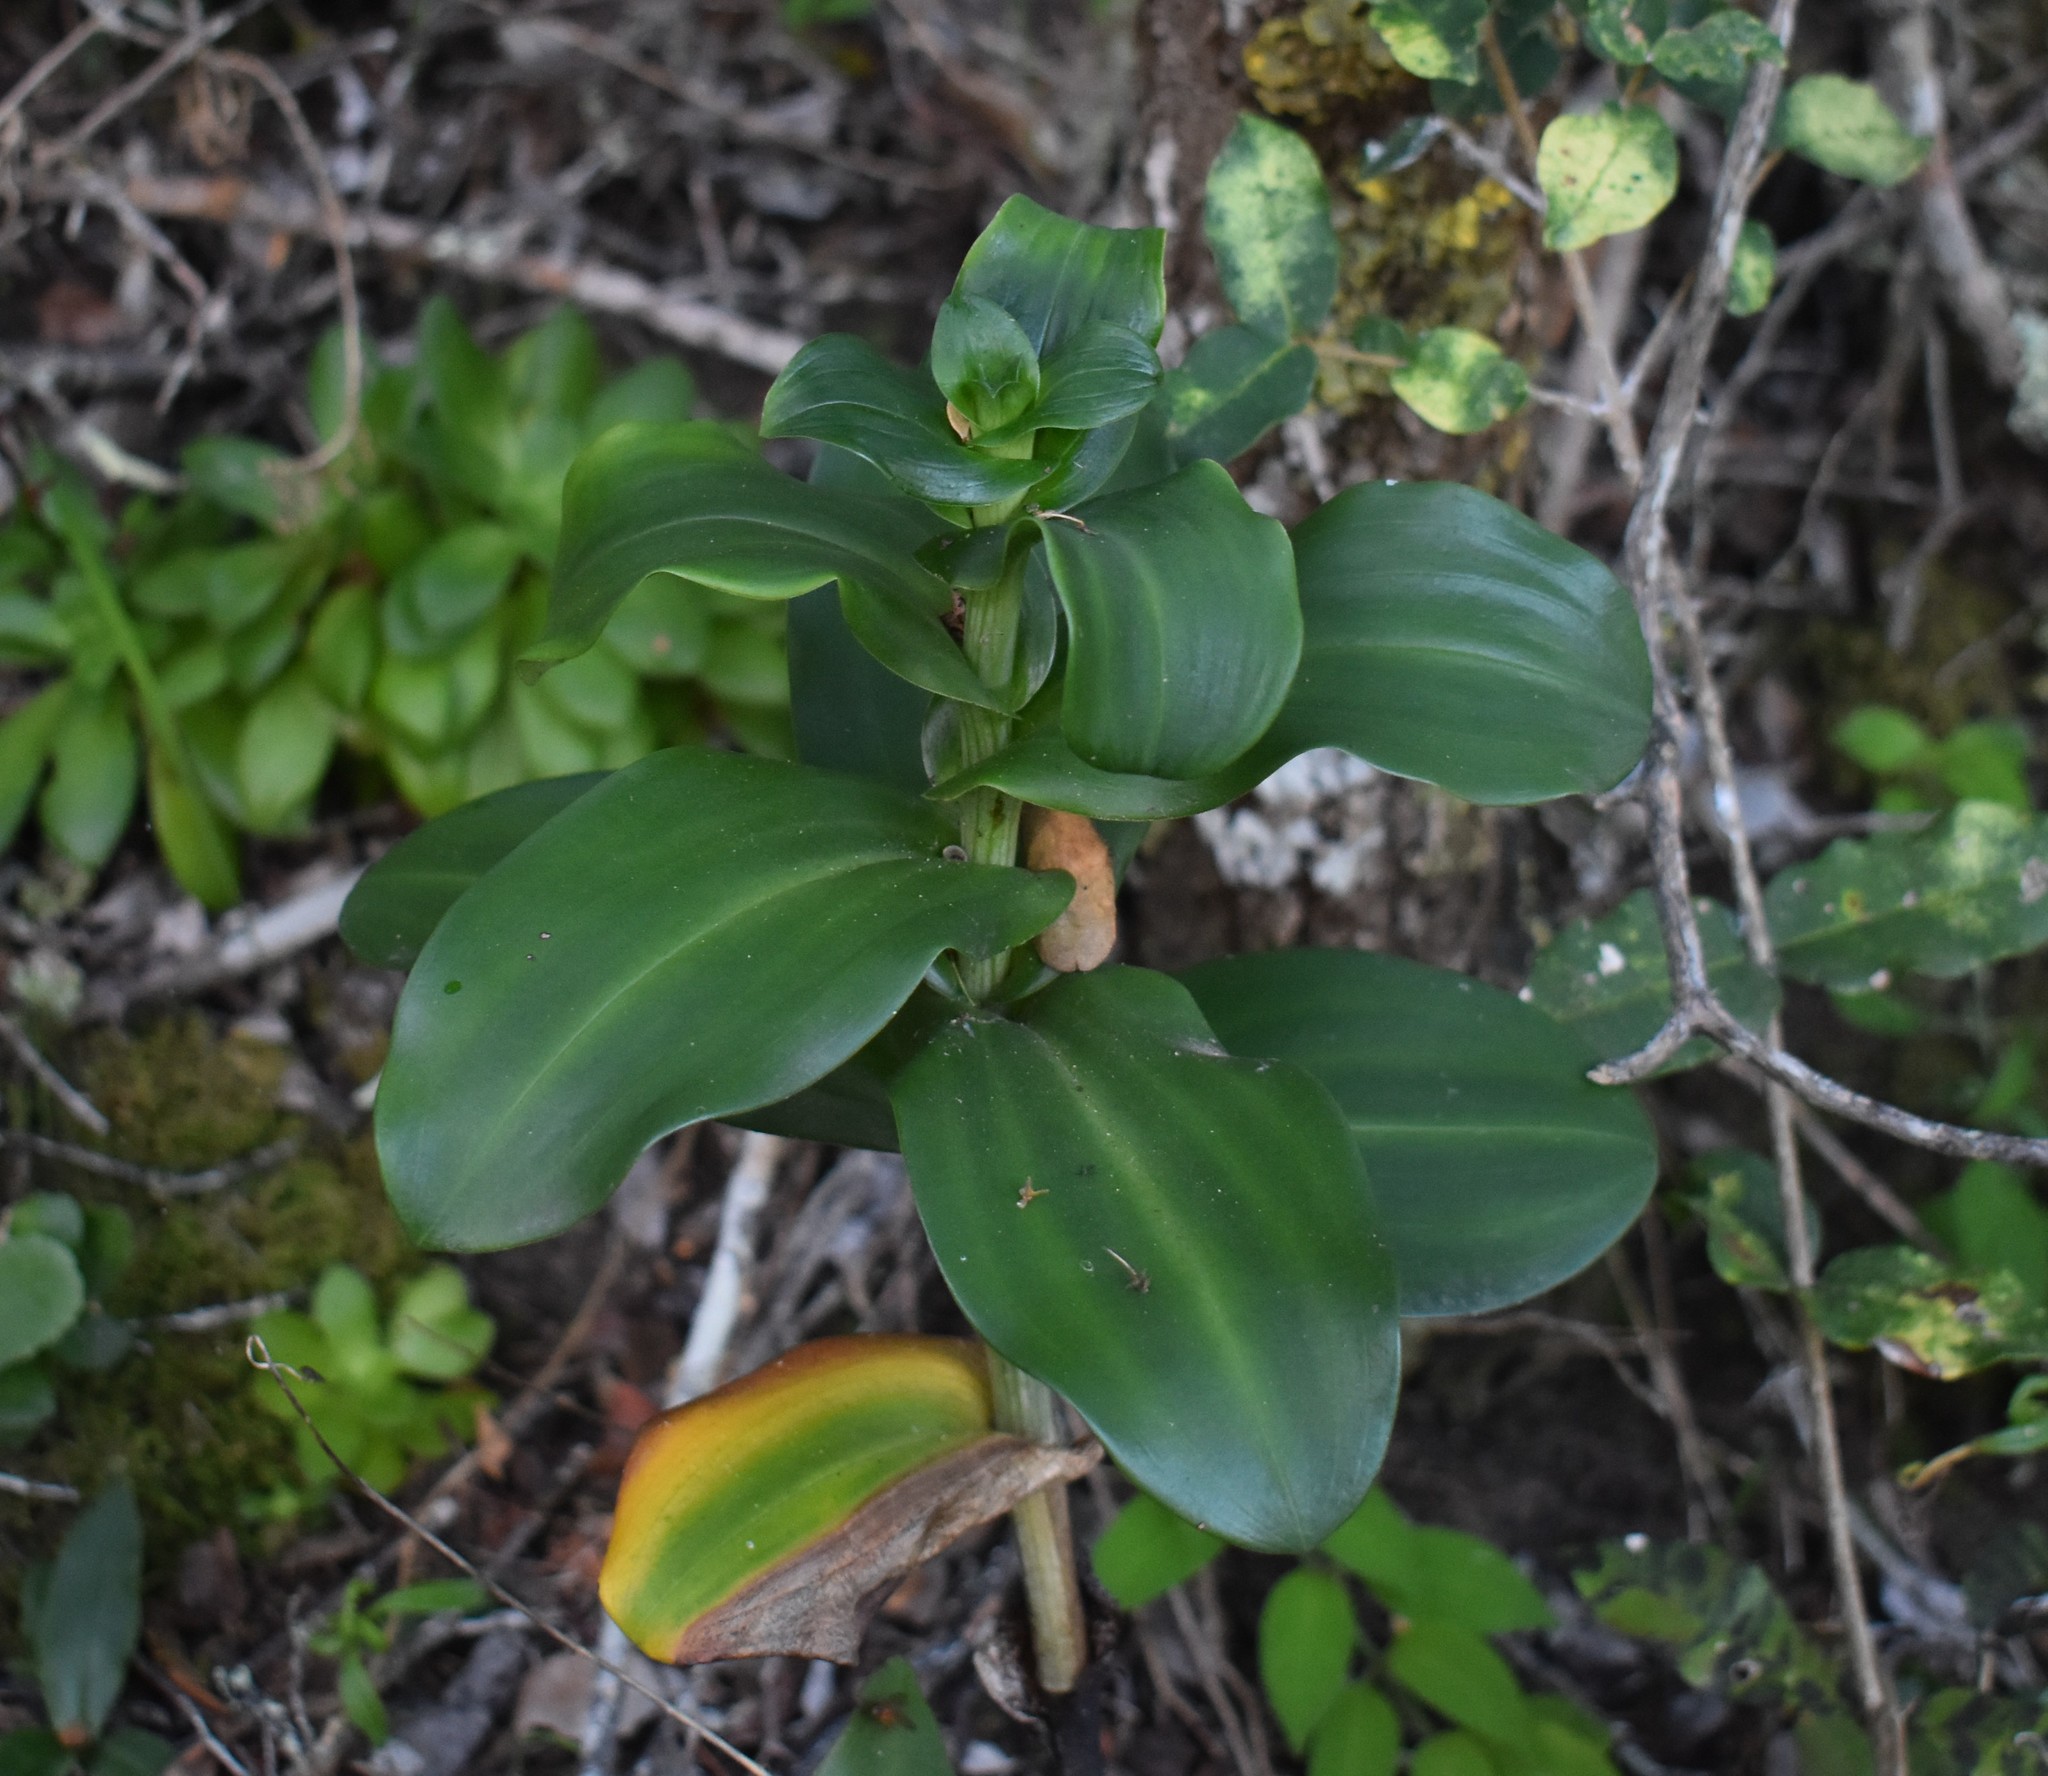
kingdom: Plantae
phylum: Tracheophyta
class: Liliopsida
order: Asparagales
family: Orchidaceae
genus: Bonatea
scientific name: Bonatea speciosa
